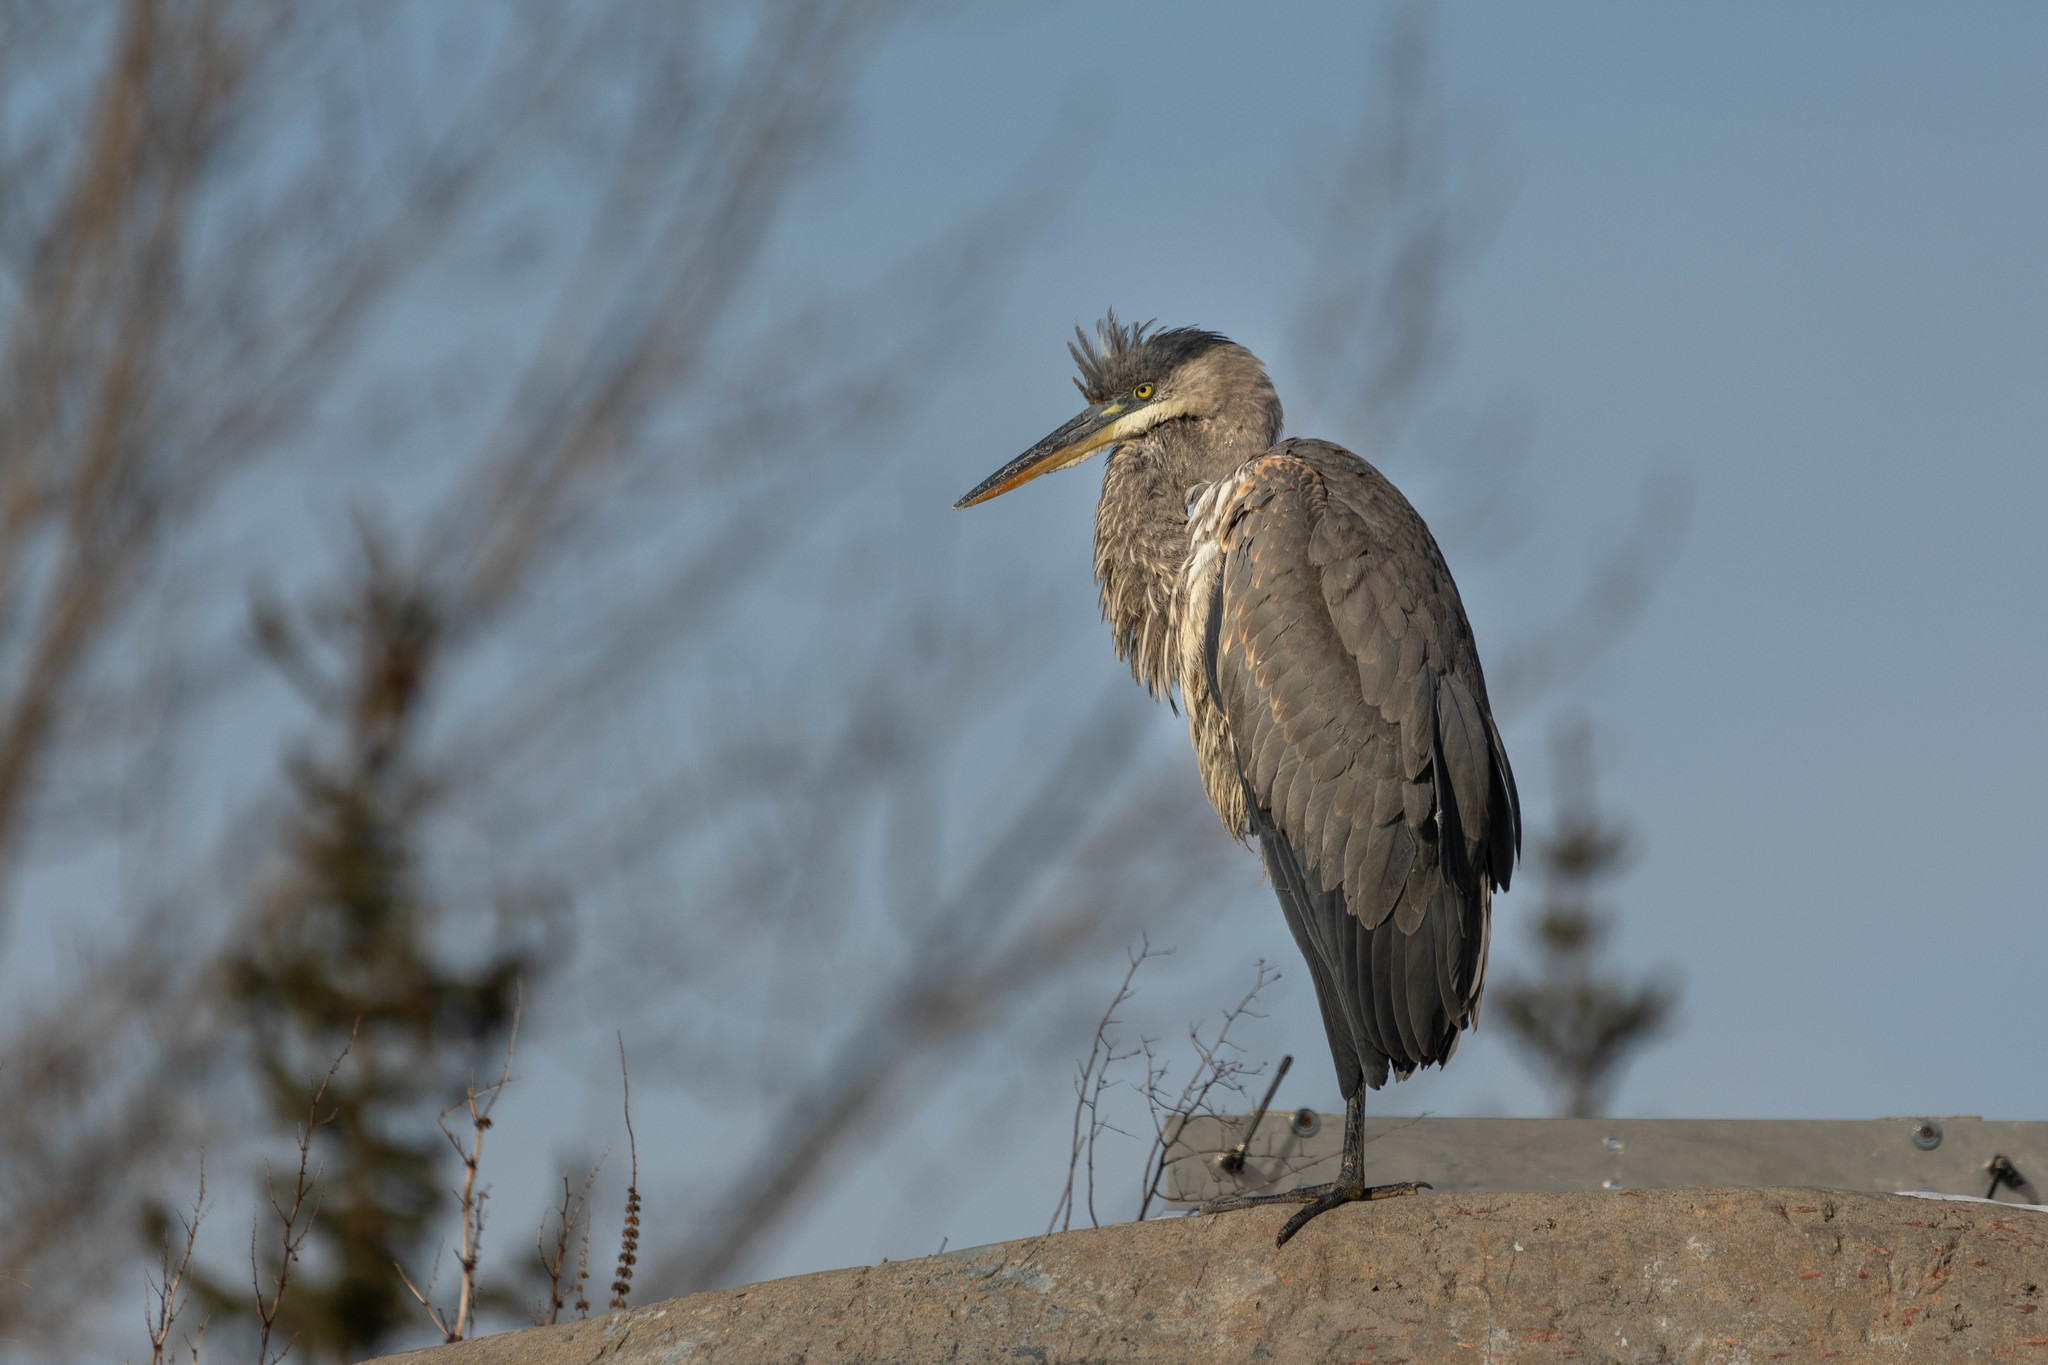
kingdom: Animalia
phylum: Chordata
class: Aves
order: Pelecaniformes
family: Ardeidae
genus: Ardea
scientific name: Ardea herodias
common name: Great blue heron
